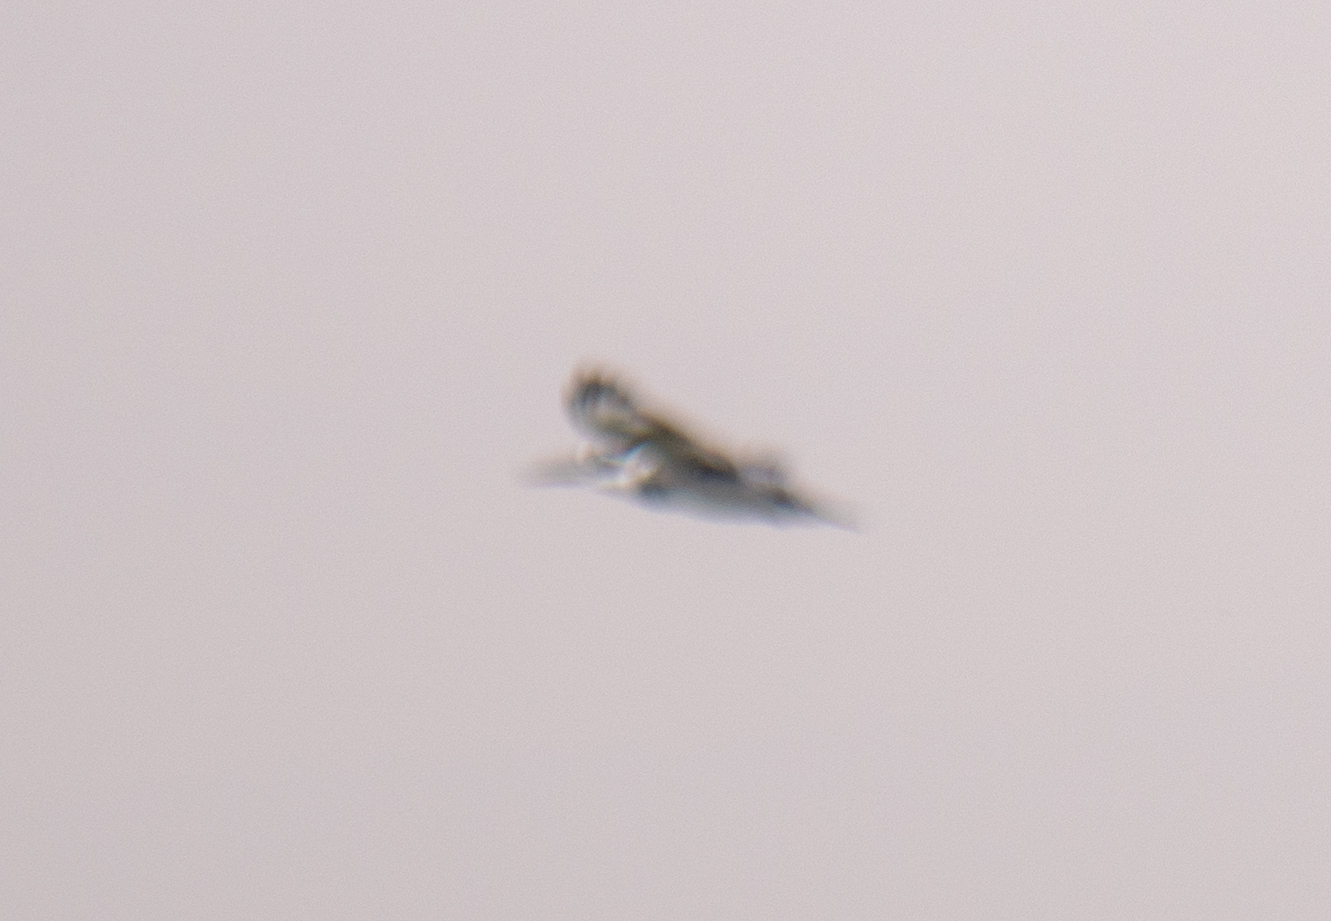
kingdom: Animalia
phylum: Chordata
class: Aves
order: Coraciiformes
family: Alcedinidae
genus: Ceryle
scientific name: Ceryle rudis
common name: Pied kingfisher
